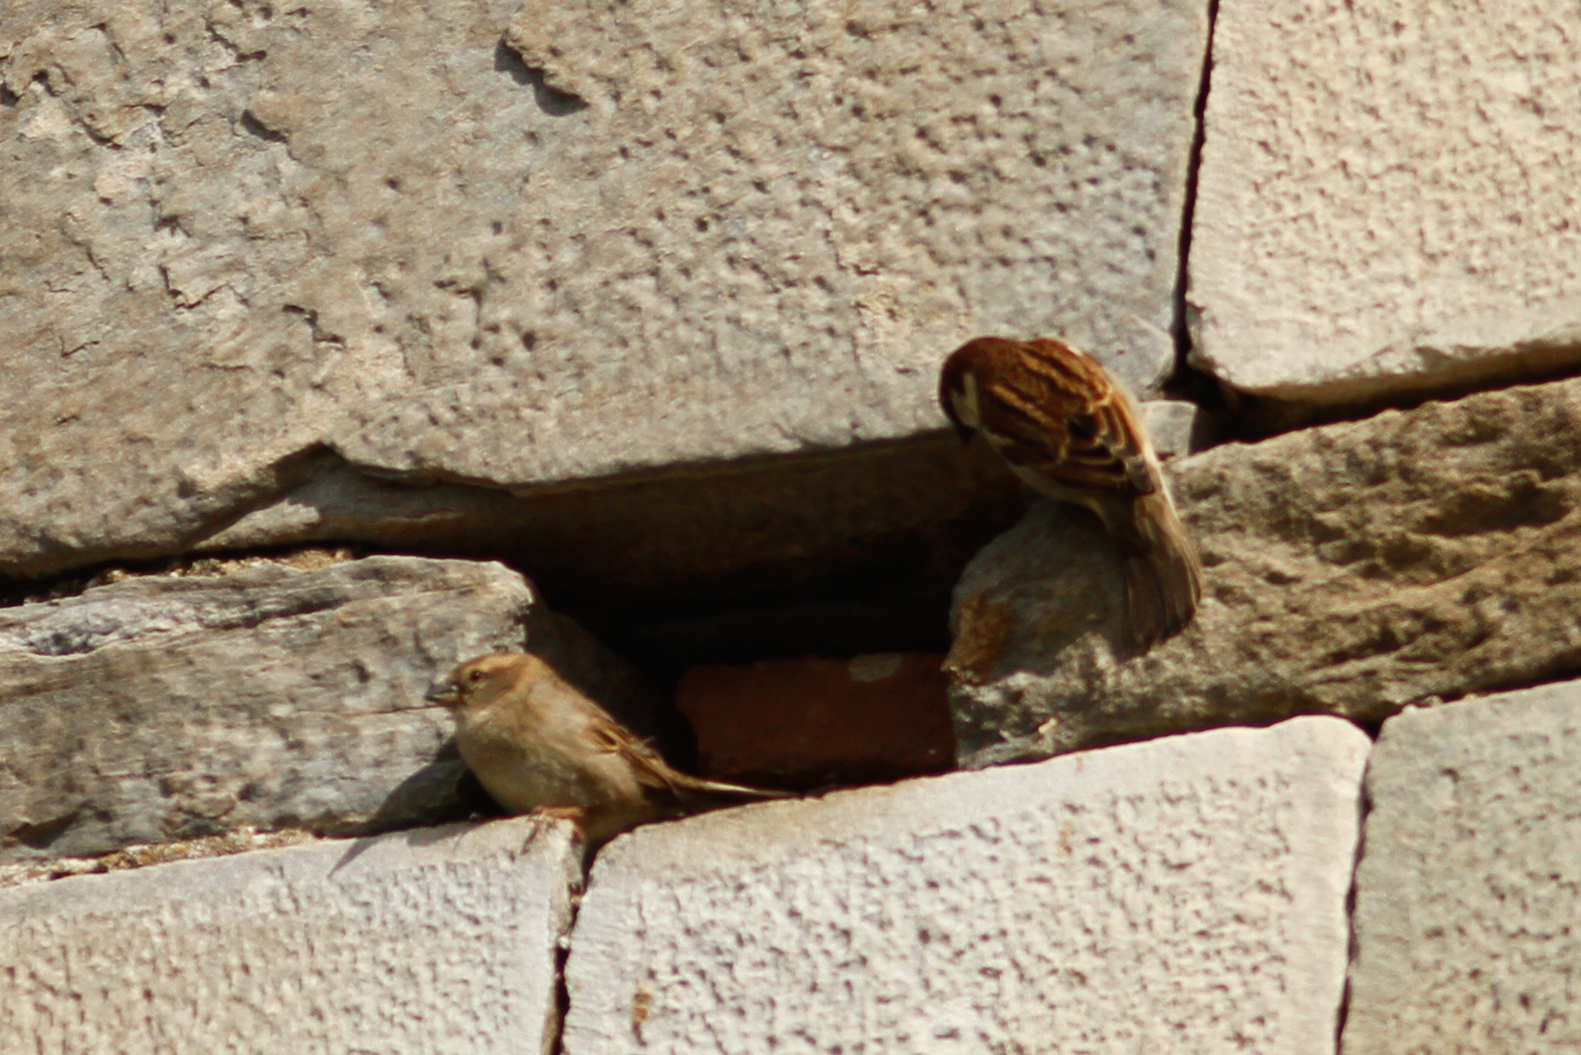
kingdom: Animalia
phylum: Chordata
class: Aves
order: Passeriformes
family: Passeridae
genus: Passer
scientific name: Passer italiae
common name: Italian sparrow
